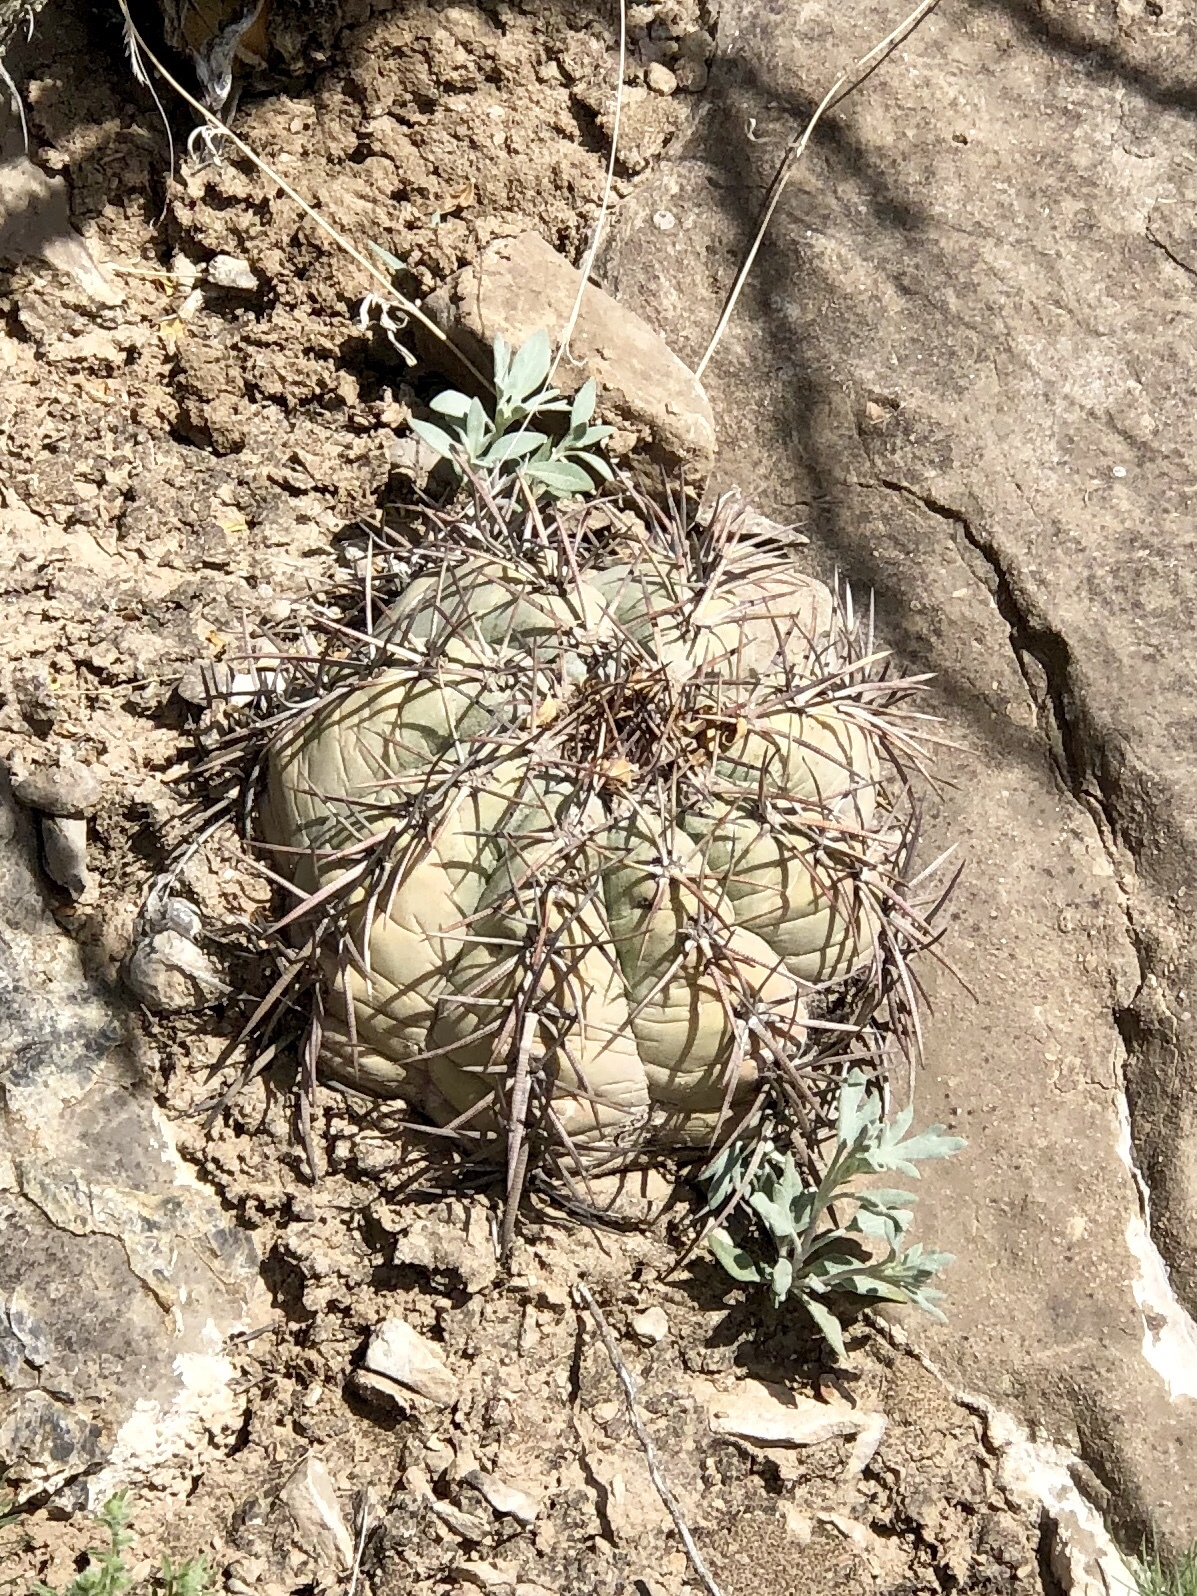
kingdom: Plantae
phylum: Tracheophyta
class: Magnoliopsida
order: Caryophyllales
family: Cactaceae
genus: Echinocactus
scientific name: Echinocactus horizonthalonius
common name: Devilshead
